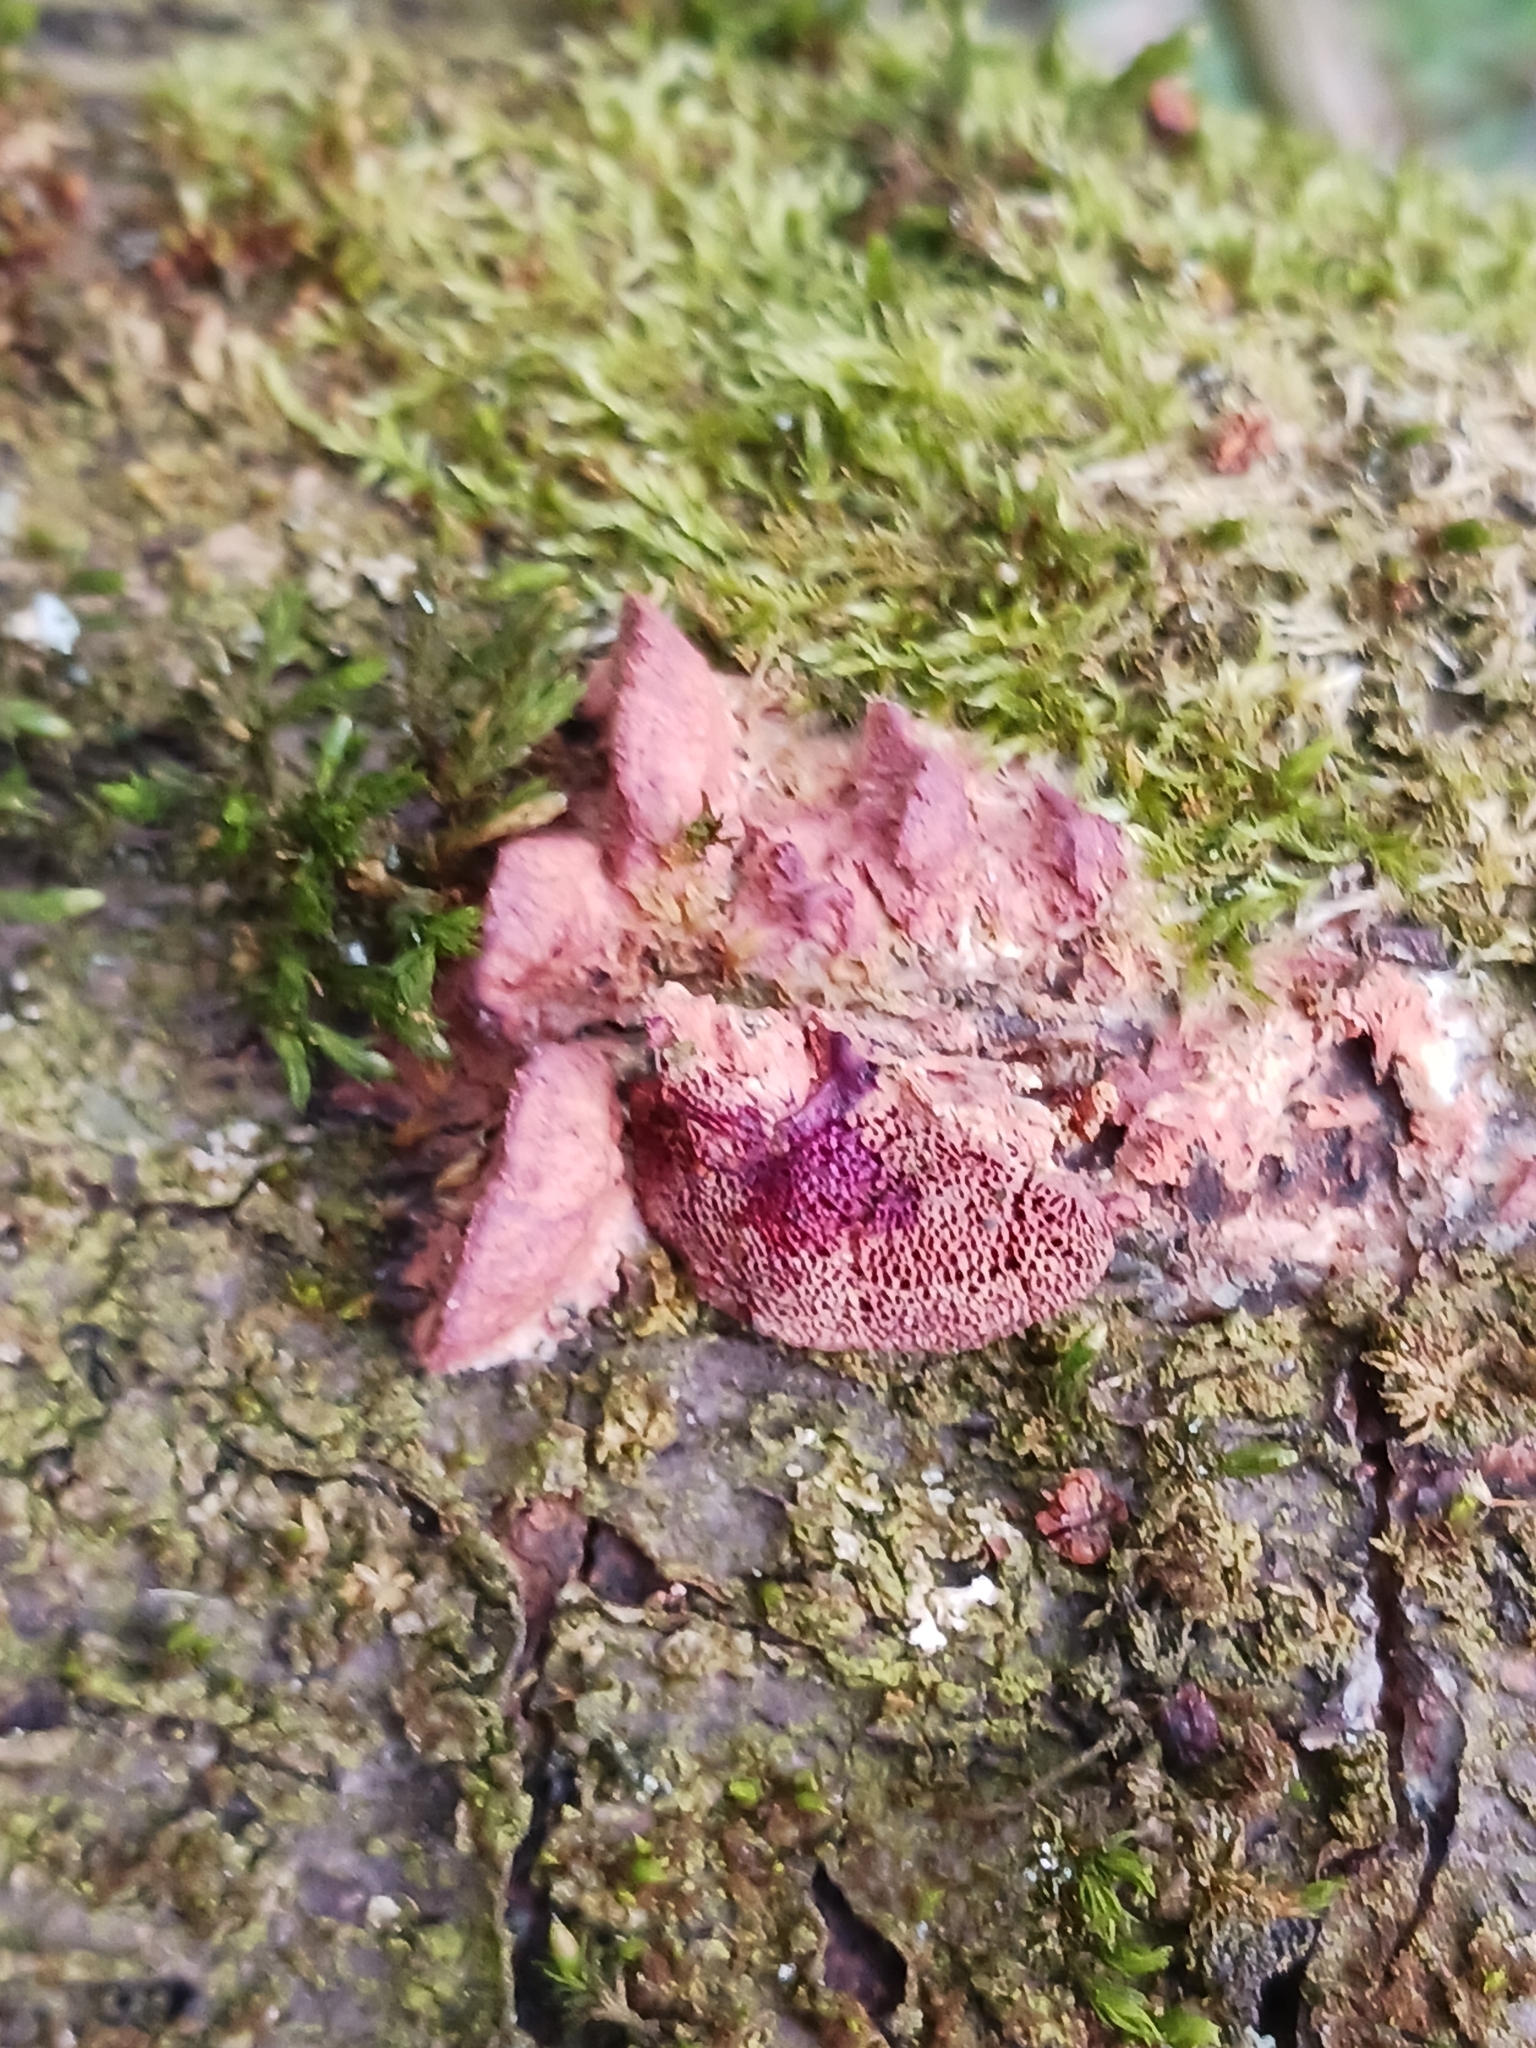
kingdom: Fungi
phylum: Basidiomycota
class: Agaricomycetes
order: Polyporales
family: Phanerochaetaceae
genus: Hapalopilus
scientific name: Hapalopilus rutilans
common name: Tender nesting polypore
